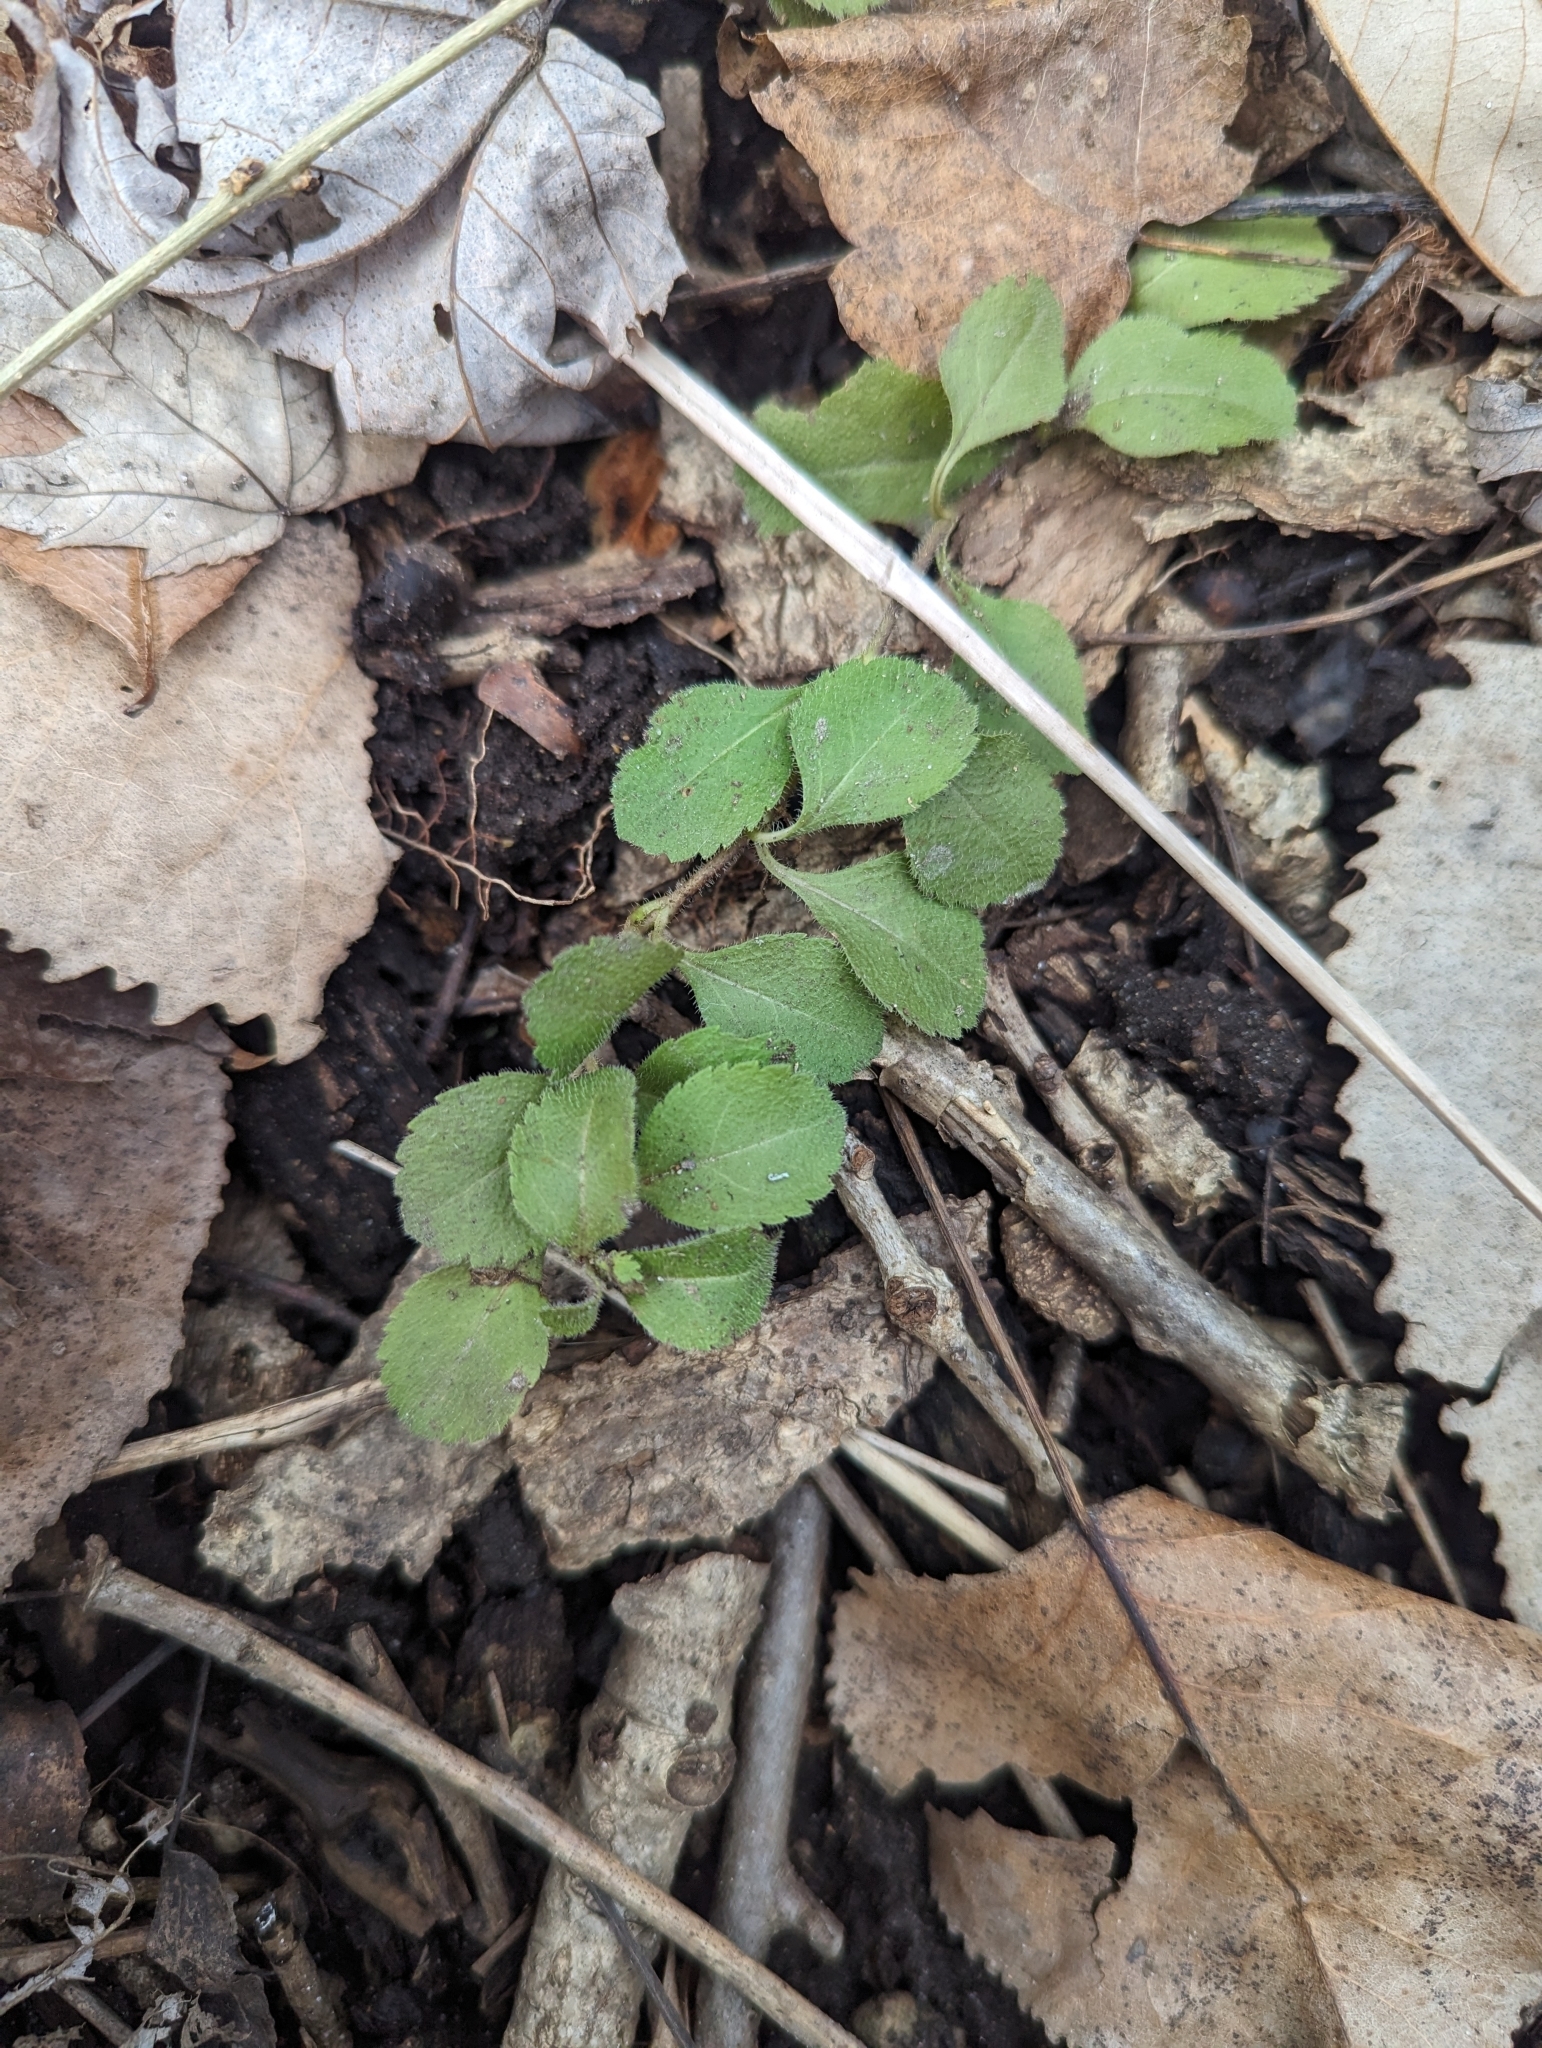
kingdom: Plantae
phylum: Tracheophyta
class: Magnoliopsida
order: Lamiales
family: Plantaginaceae
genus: Veronica
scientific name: Veronica officinalis
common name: Common speedwell
